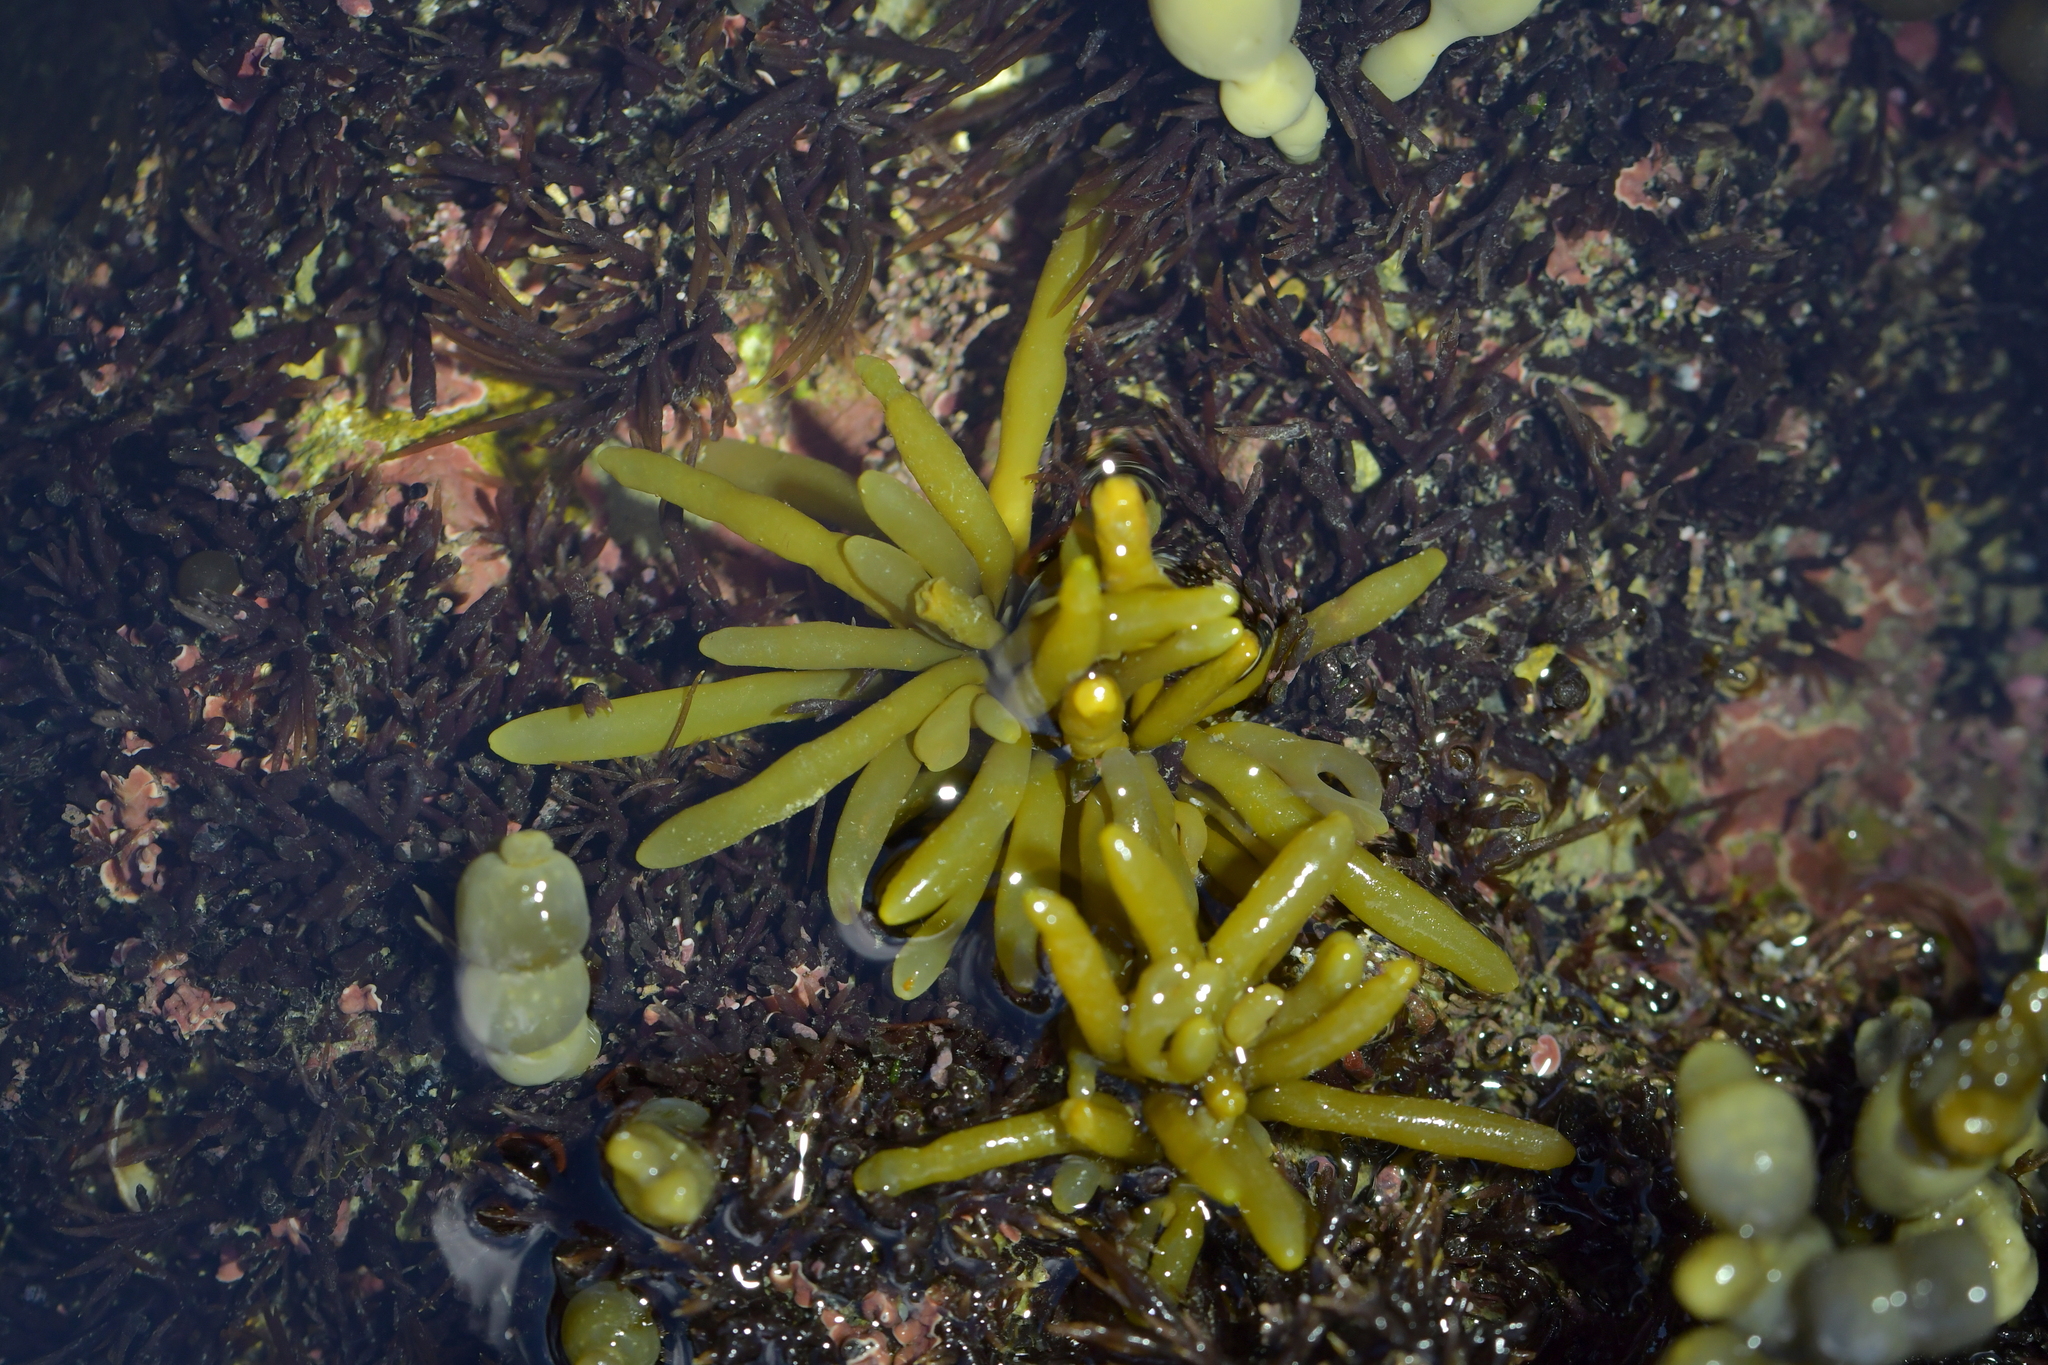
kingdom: Chromista
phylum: Ochrophyta
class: Phaeophyceae
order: Fucales
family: Sargassaceae
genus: Cystophora
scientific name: Cystophora torulosa
